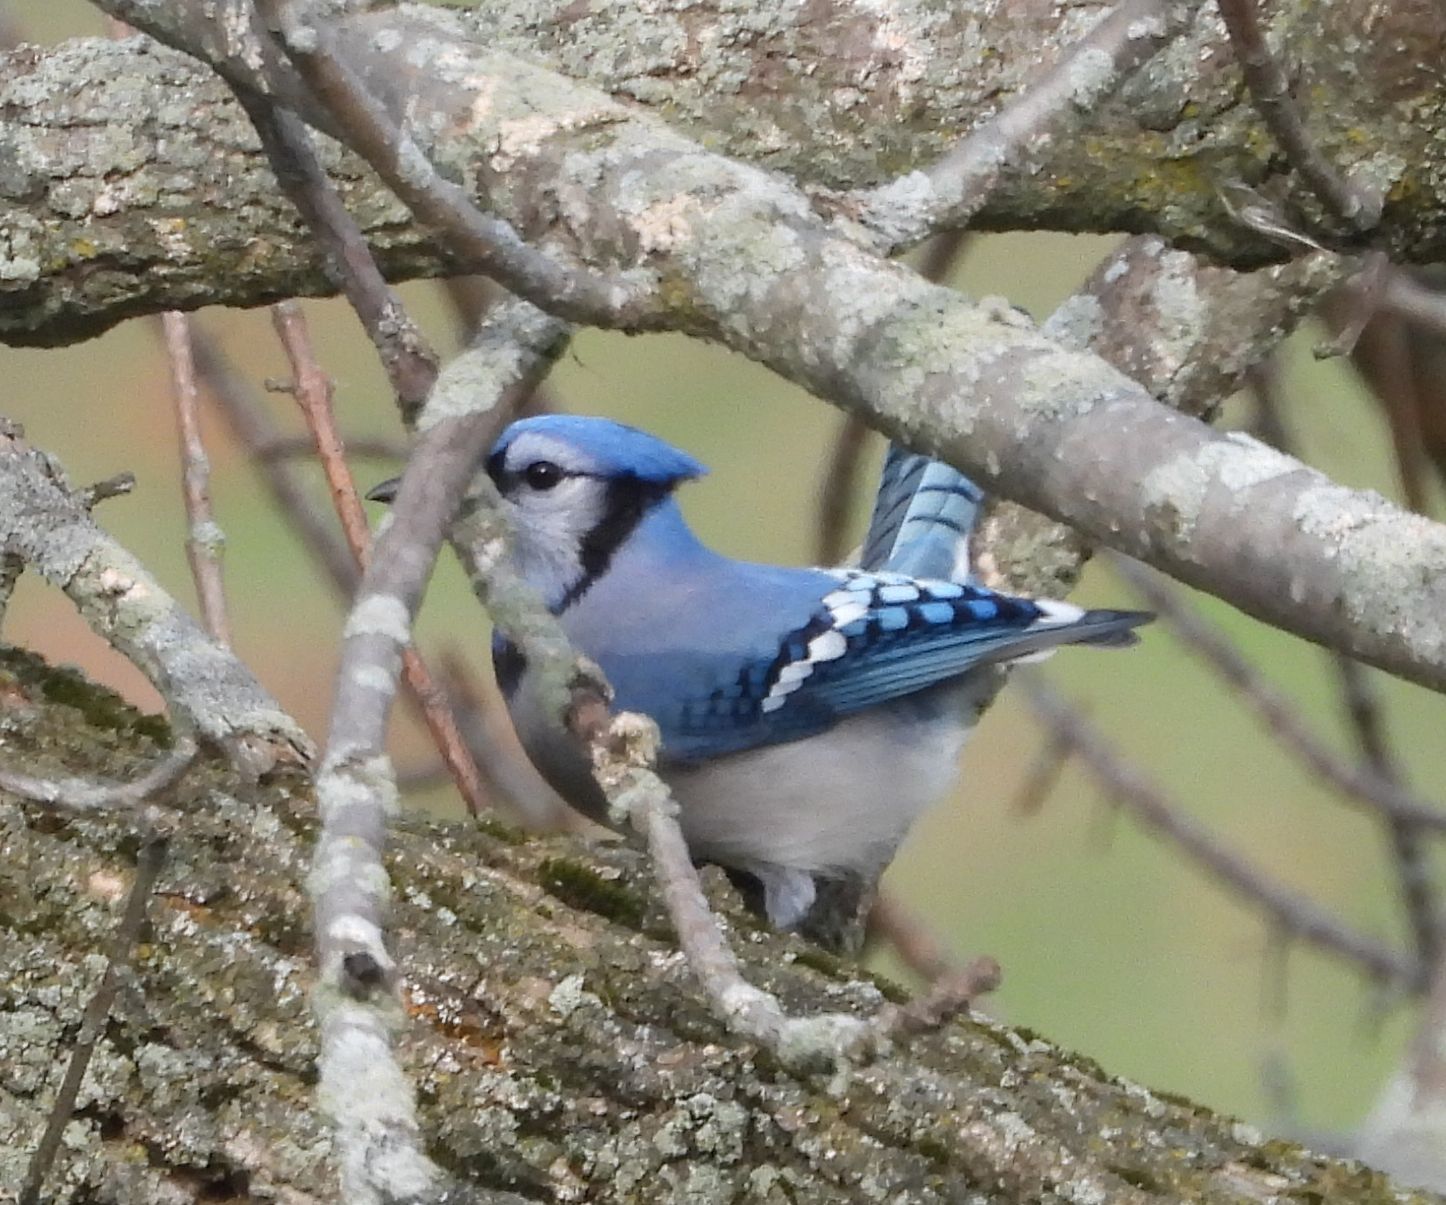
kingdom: Animalia
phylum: Chordata
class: Aves
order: Passeriformes
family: Corvidae
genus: Cyanocitta
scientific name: Cyanocitta cristata
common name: Blue jay
